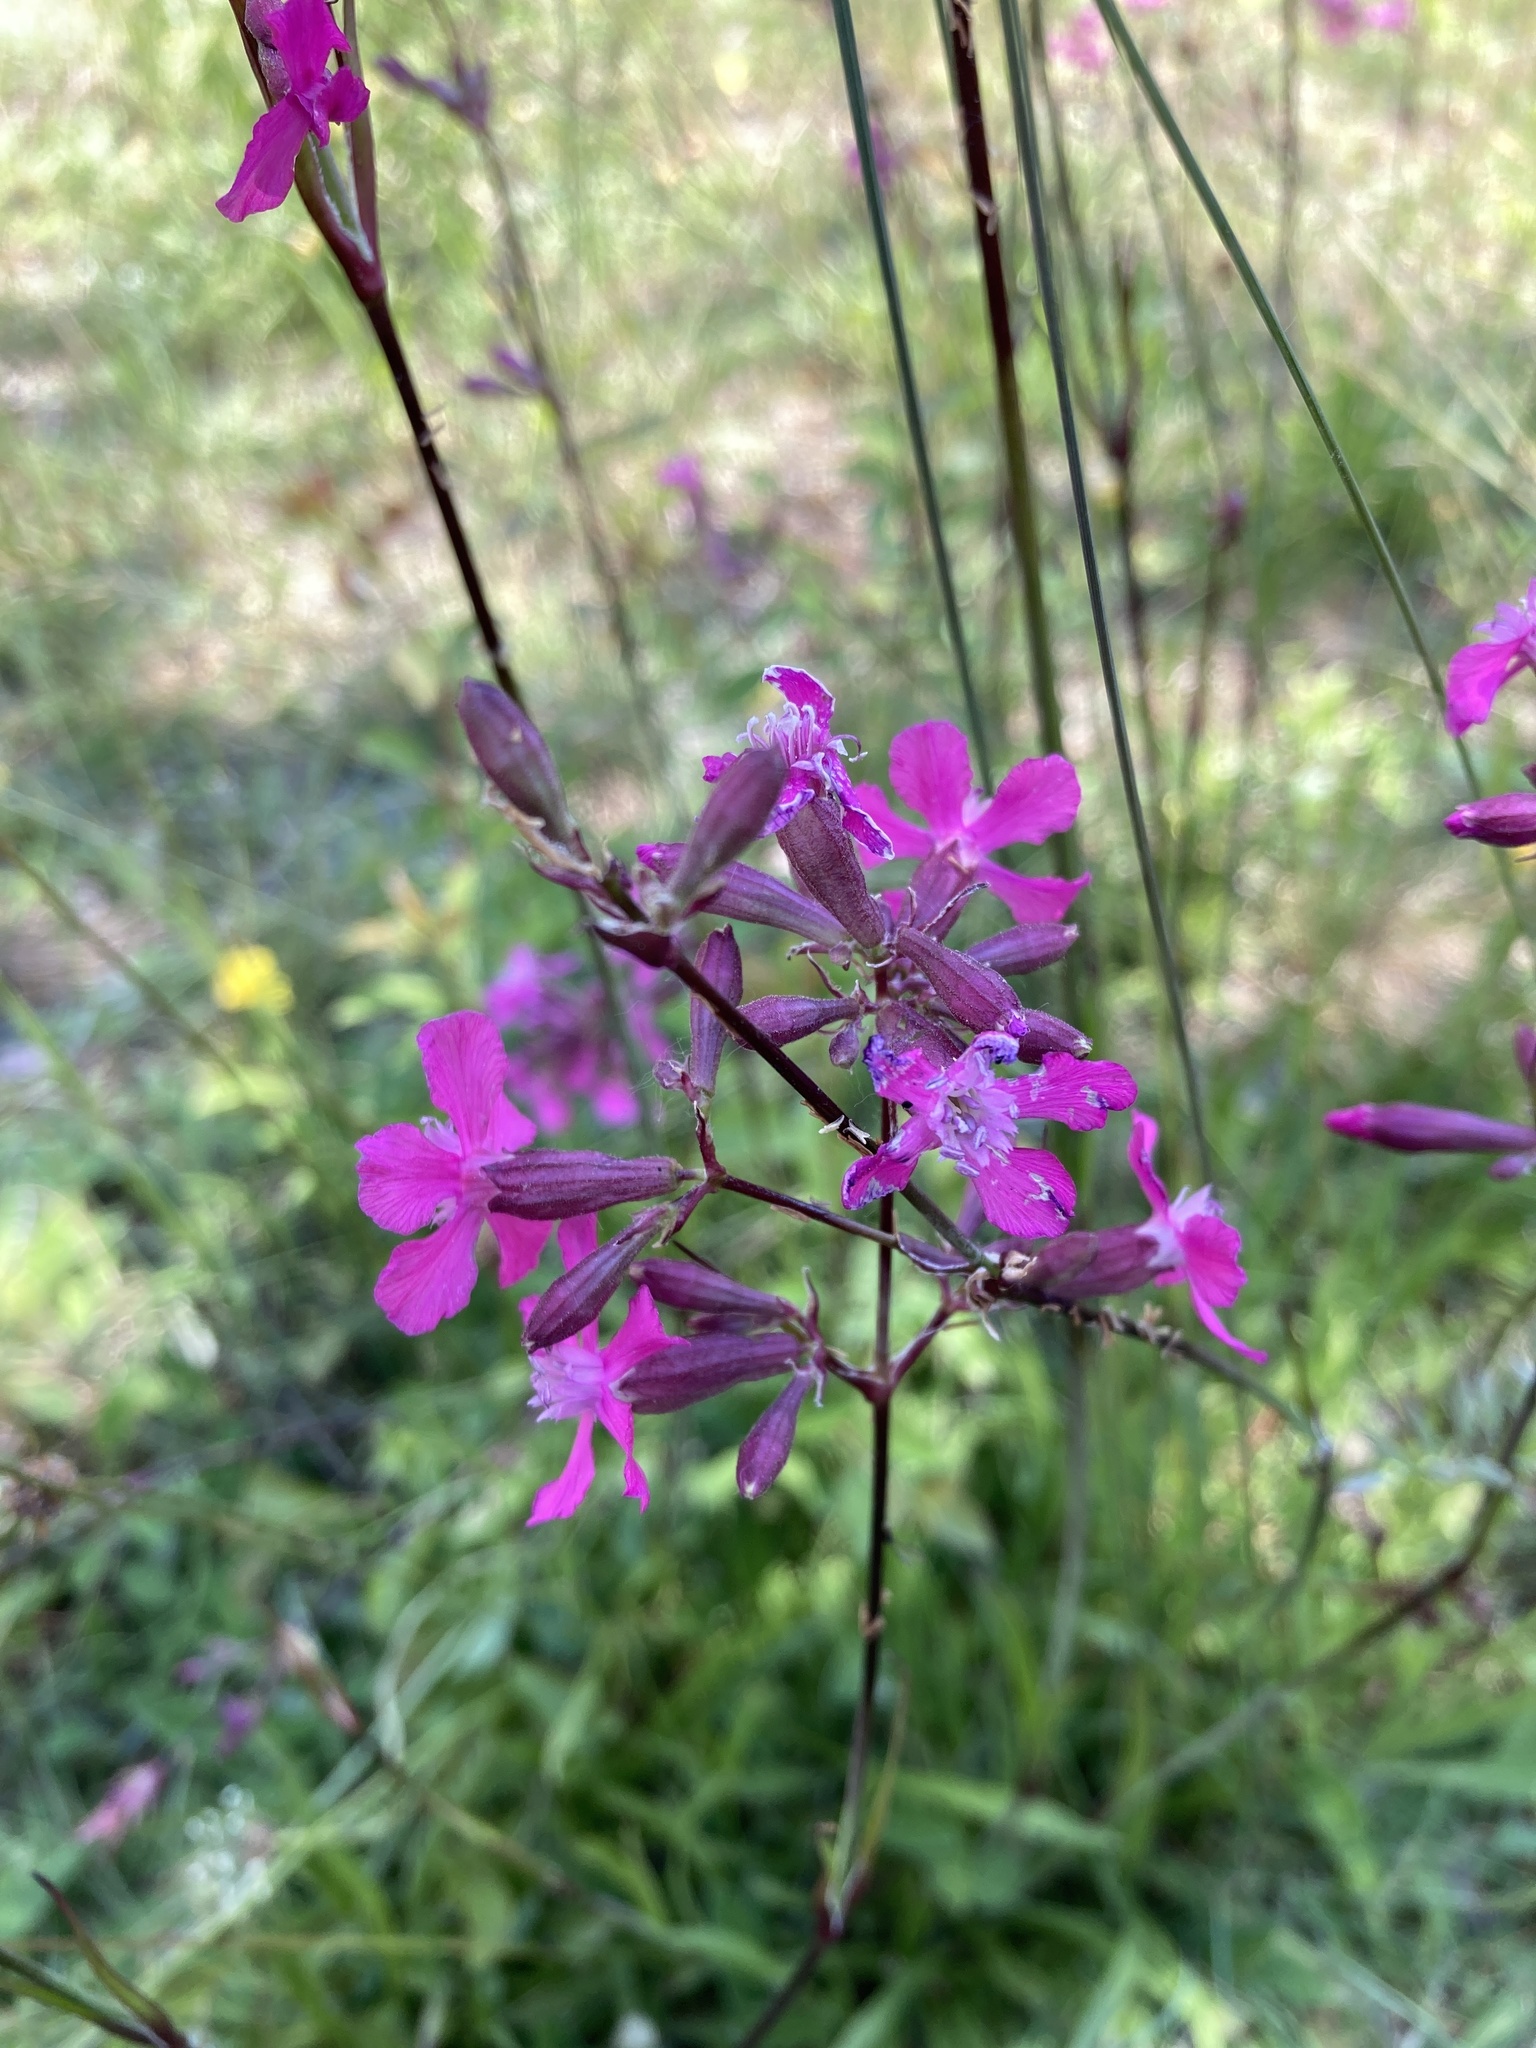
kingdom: Plantae
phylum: Tracheophyta
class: Magnoliopsida
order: Caryophyllales
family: Caryophyllaceae
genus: Viscaria
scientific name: Viscaria vulgaris
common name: Clammy campion
